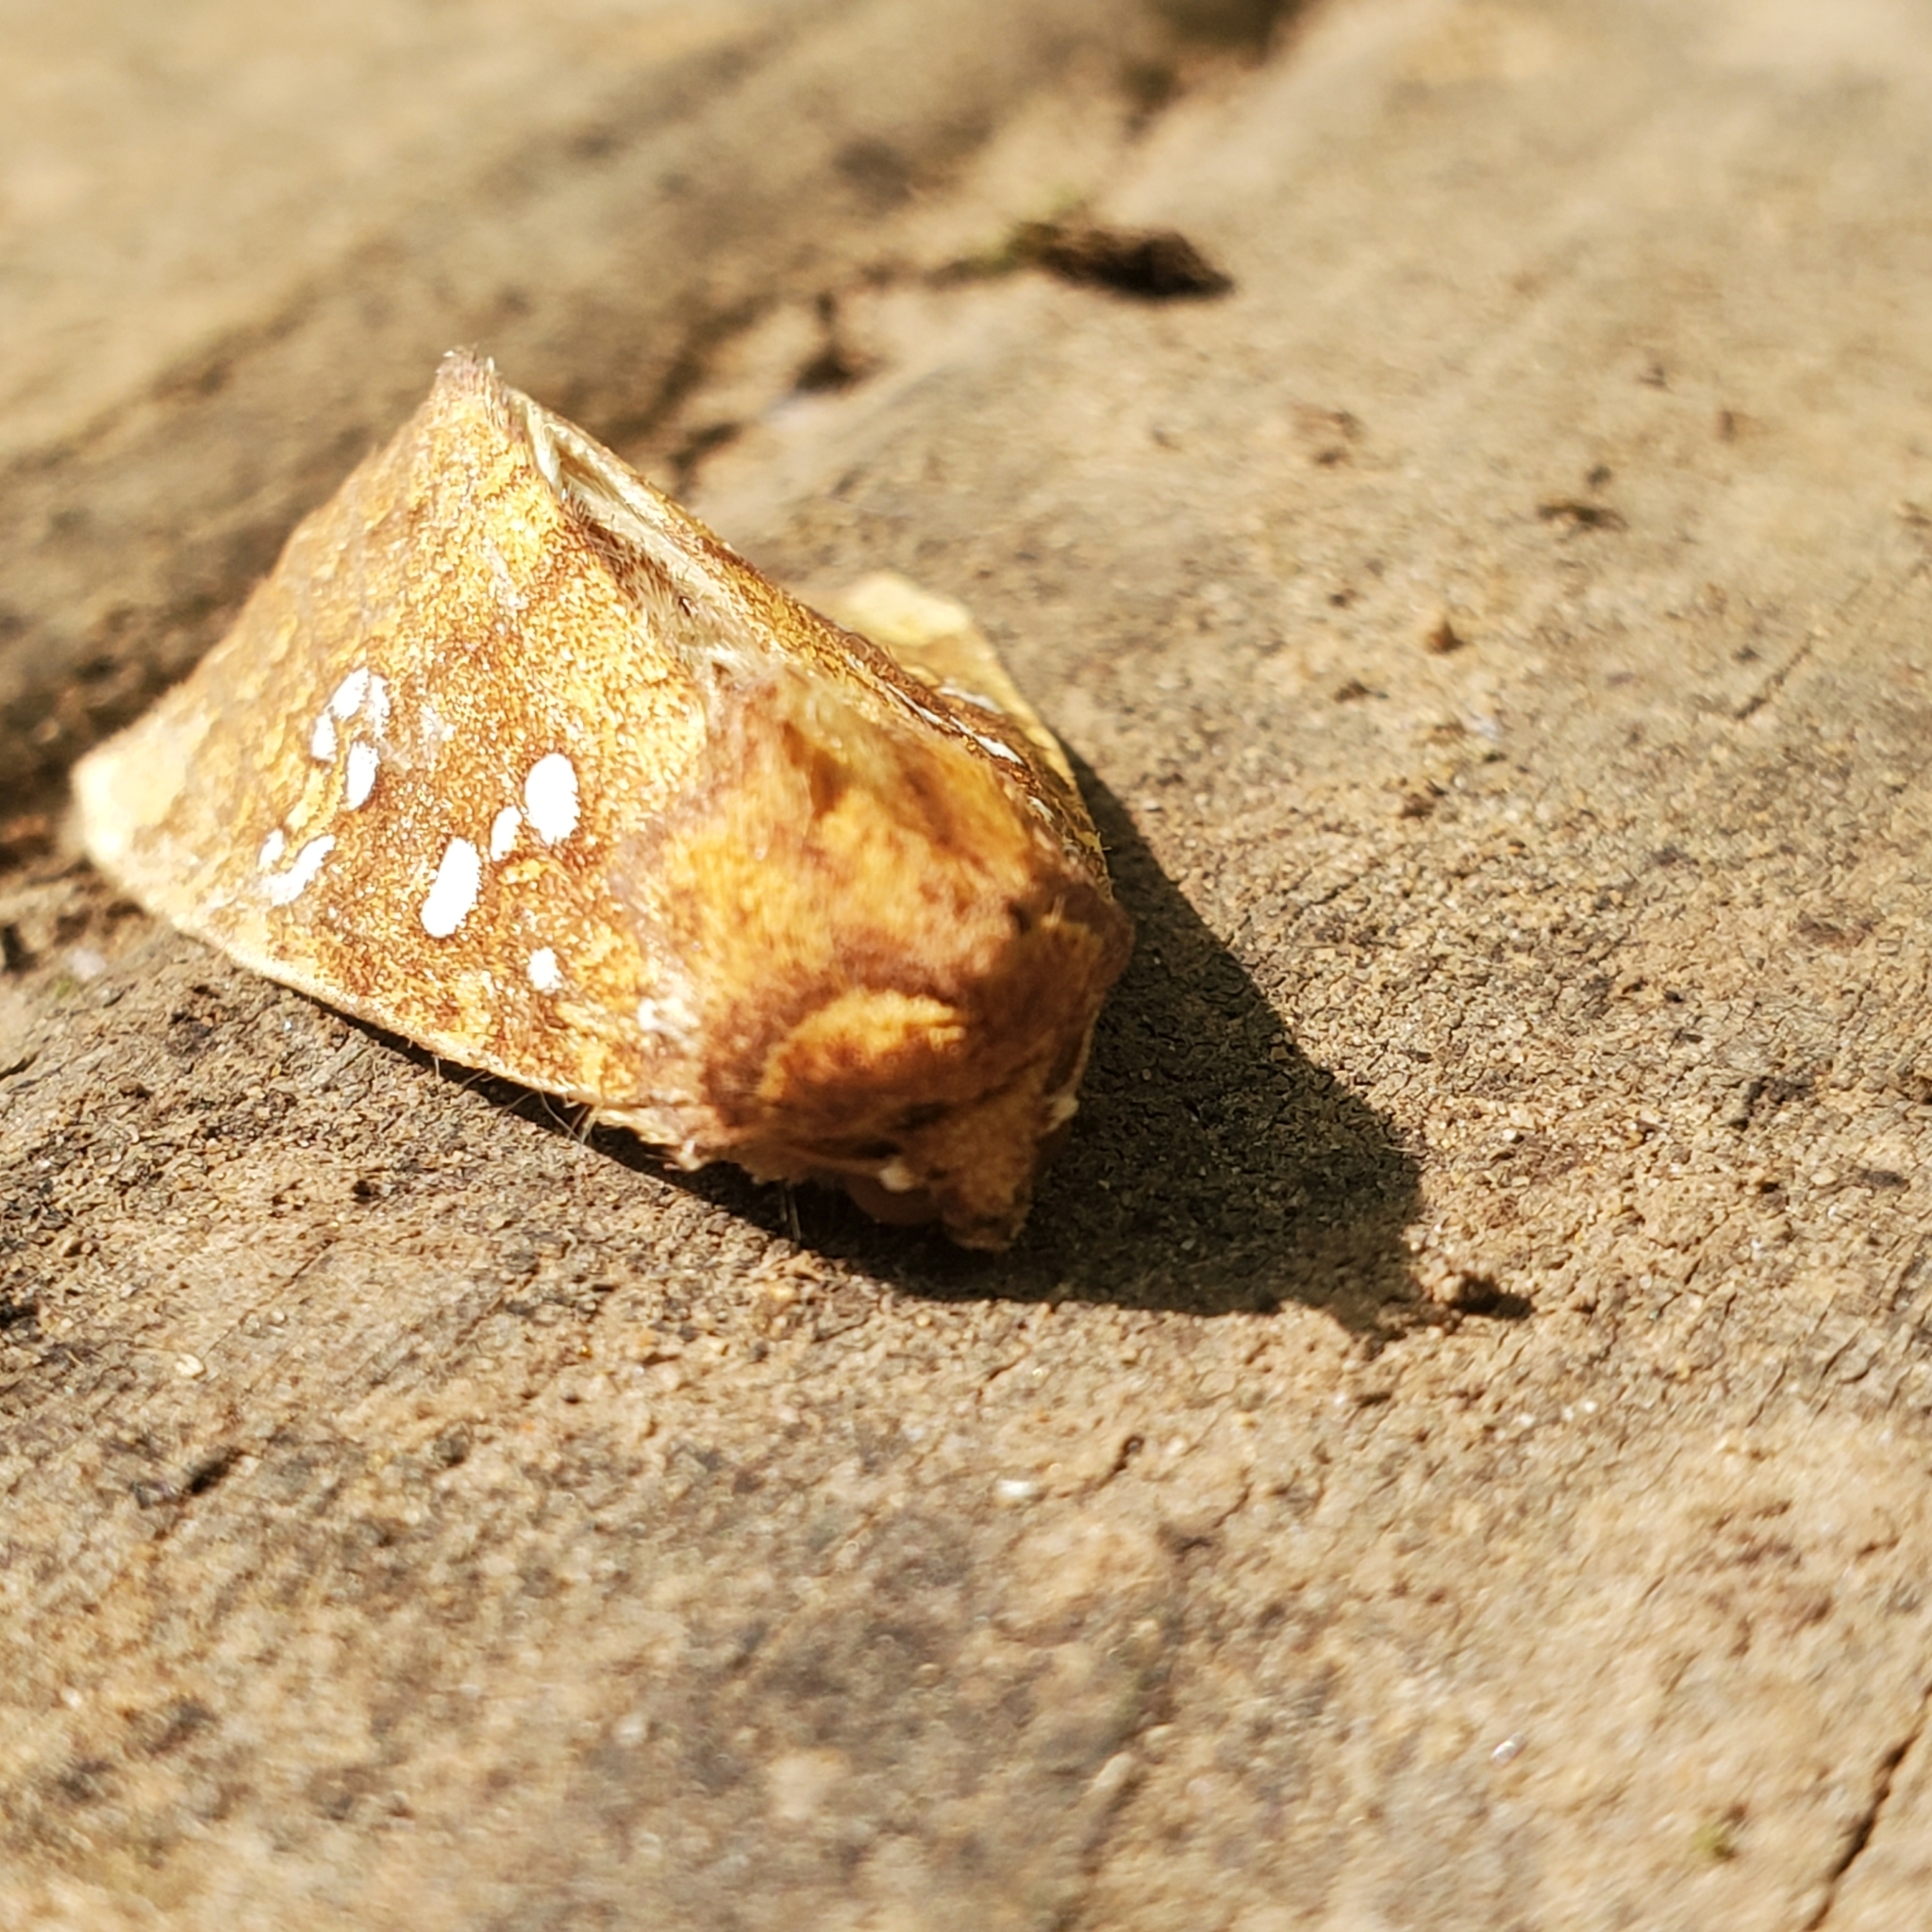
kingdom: Animalia
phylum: Arthropoda
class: Insecta
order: Lepidoptera
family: Noctuidae
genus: Papaipema
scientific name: Papaipema furcata
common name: Ash tip borer moth
